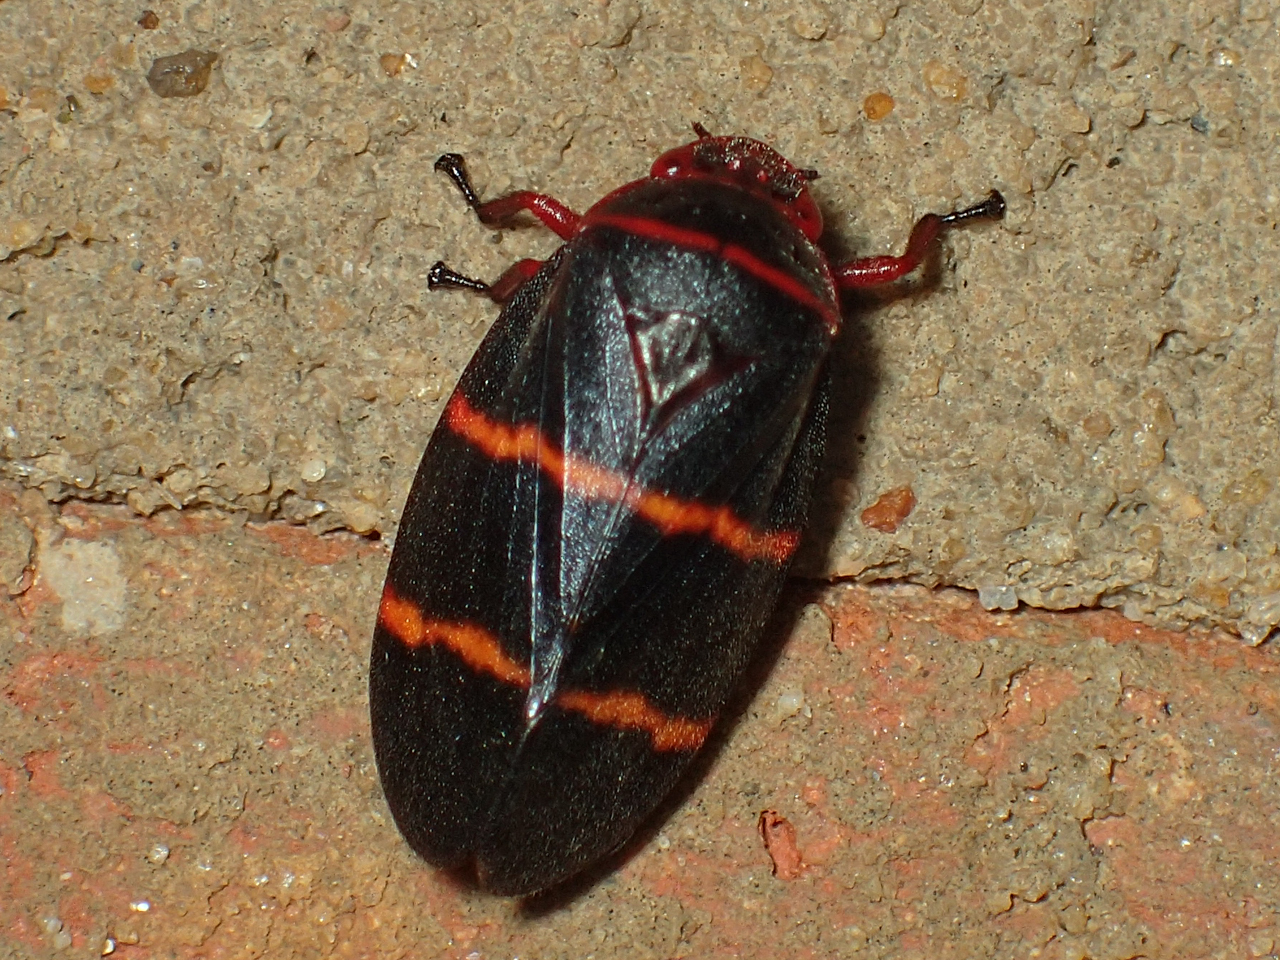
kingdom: Animalia
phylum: Arthropoda
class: Insecta
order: Hemiptera
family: Cercopidae
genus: Prosapia
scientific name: Prosapia bicincta
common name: Twolined spittlebug
